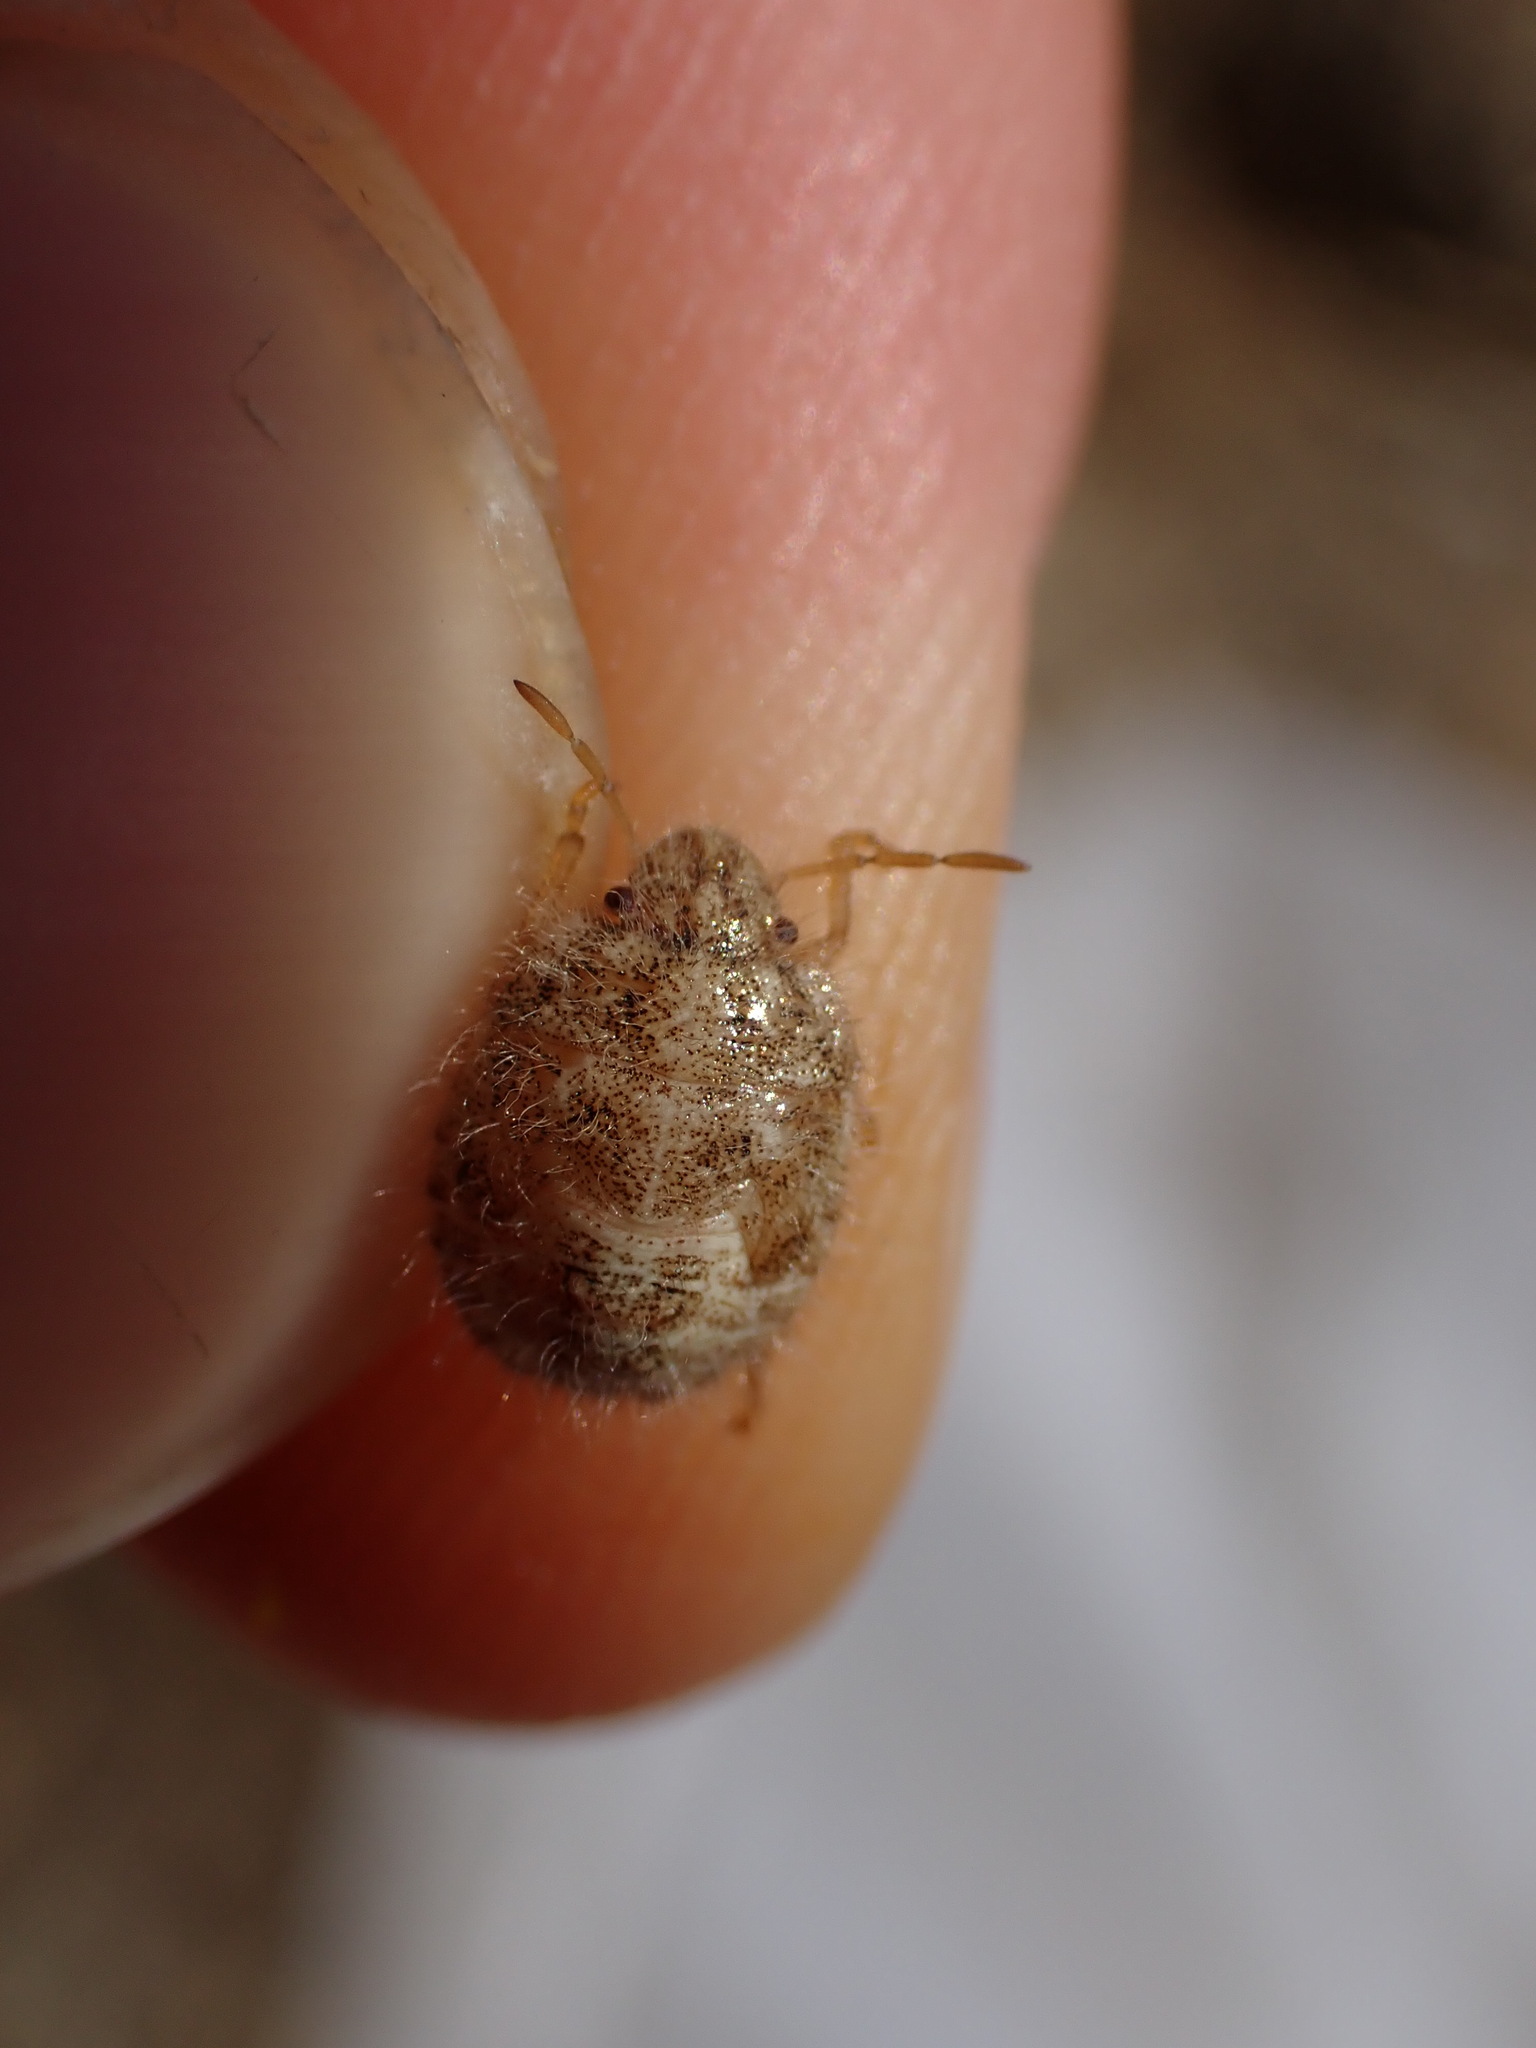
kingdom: Animalia
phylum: Arthropoda
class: Insecta
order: Hemiptera
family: Pentatomidae
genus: Staria
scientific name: Staria lunata
